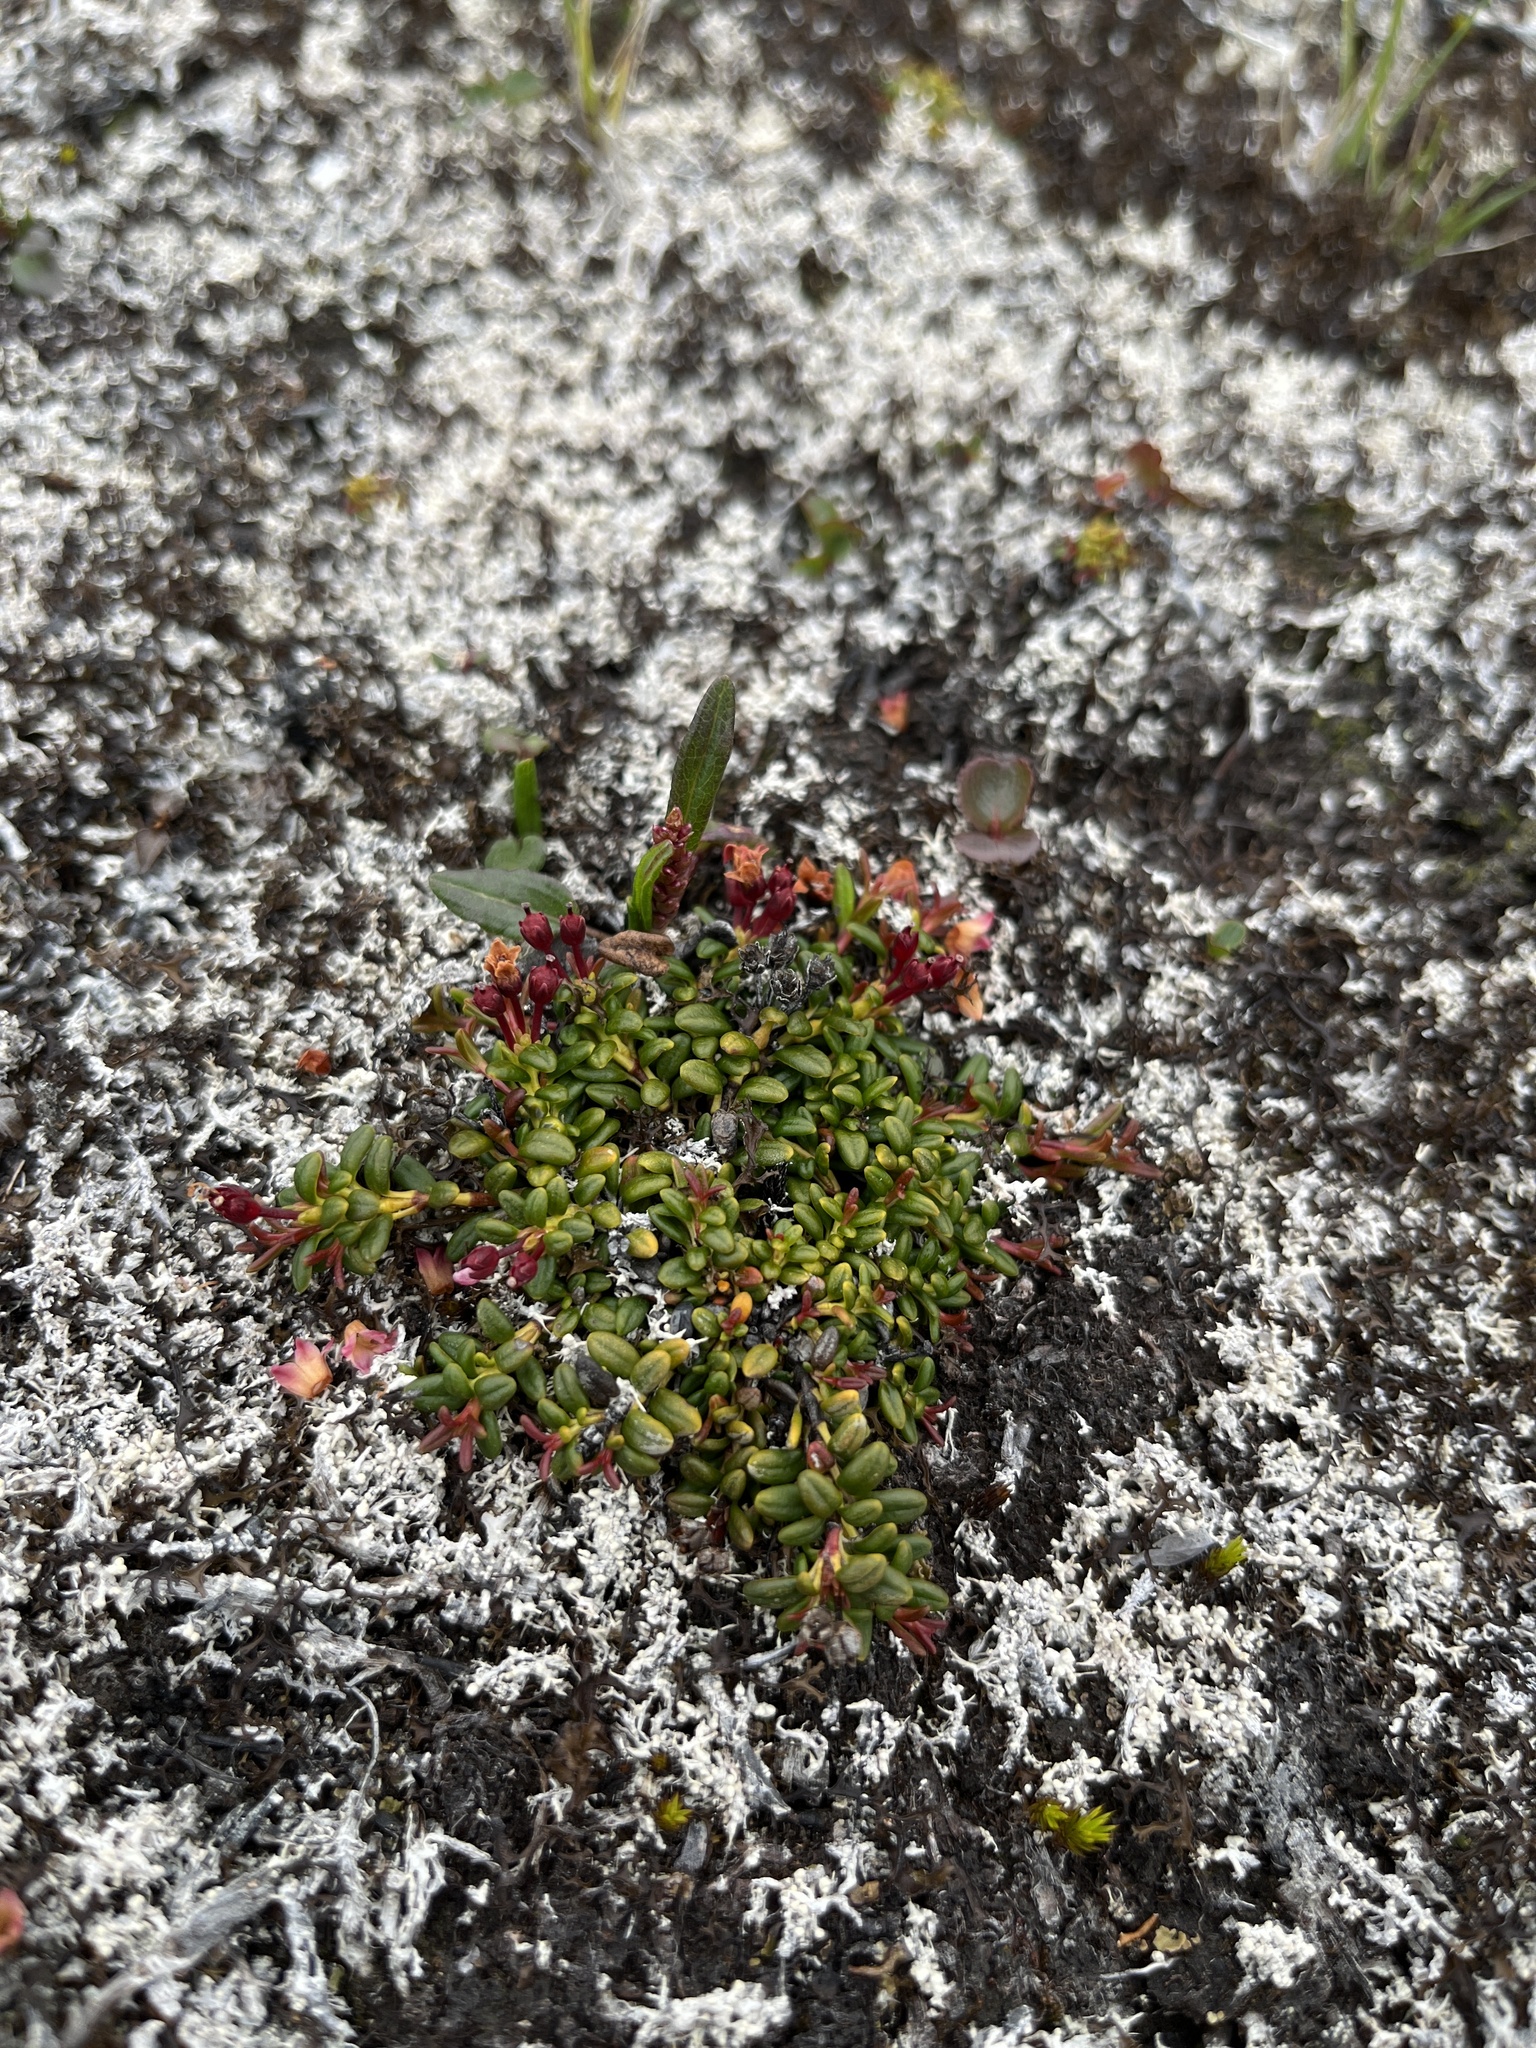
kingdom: Plantae
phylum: Tracheophyta
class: Magnoliopsida
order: Ericales
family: Ericaceae
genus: Kalmia
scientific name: Kalmia procumbens
